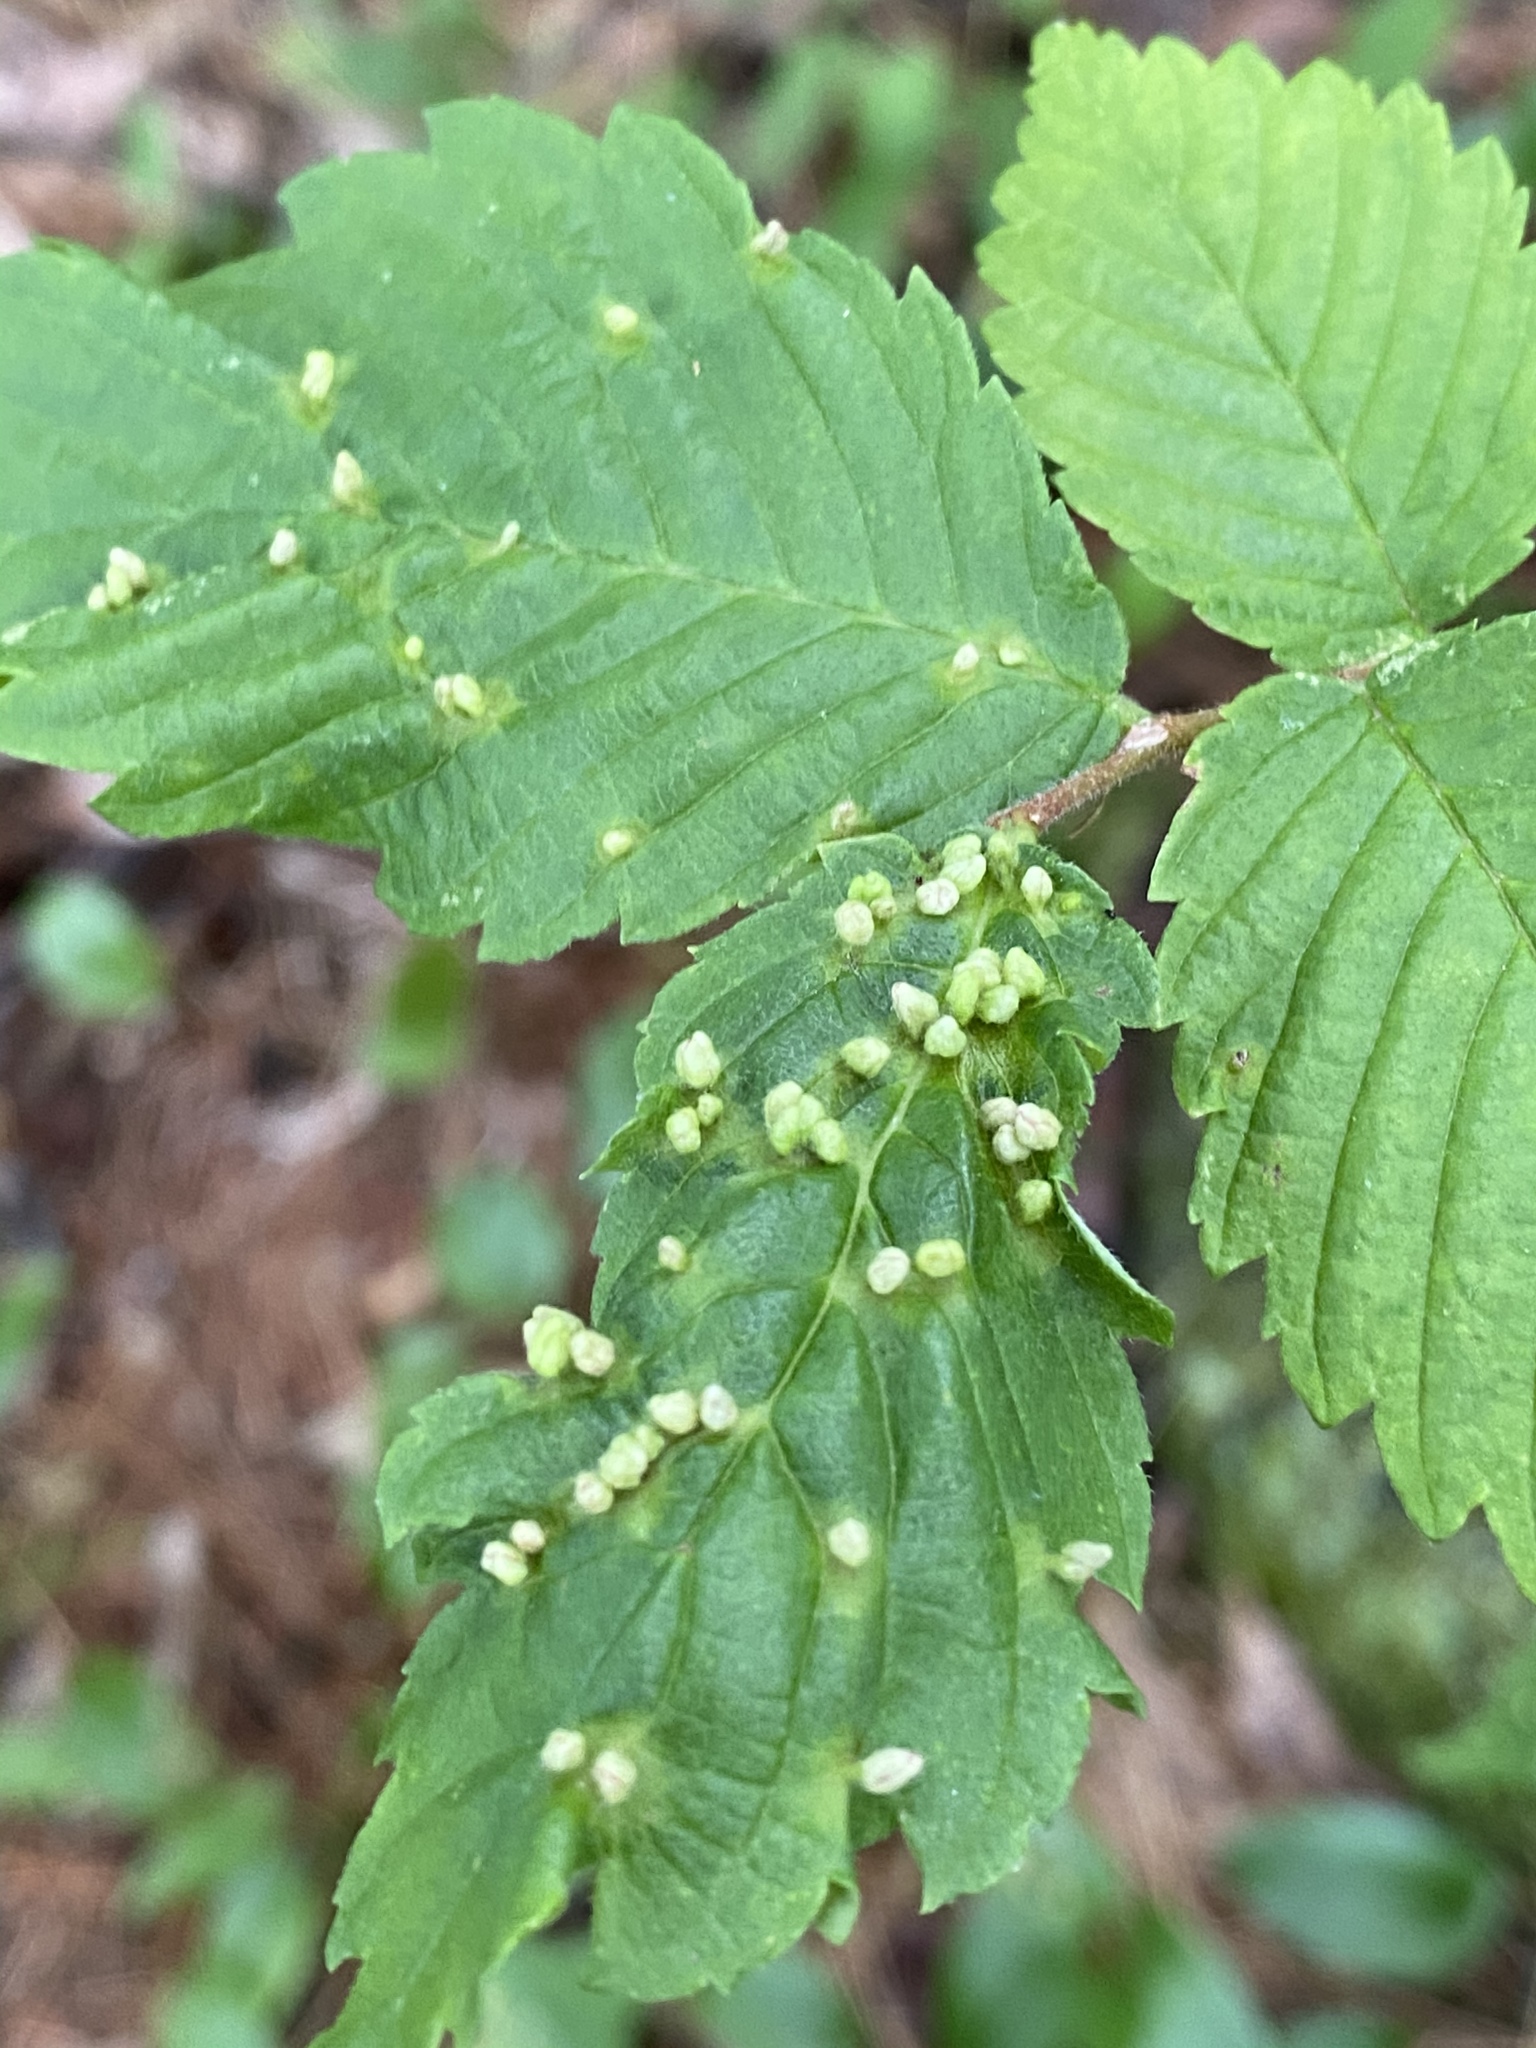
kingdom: Animalia
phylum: Arthropoda
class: Arachnida
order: Trombidiformes
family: Eriophyidae
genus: Aceria
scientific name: Aceria
